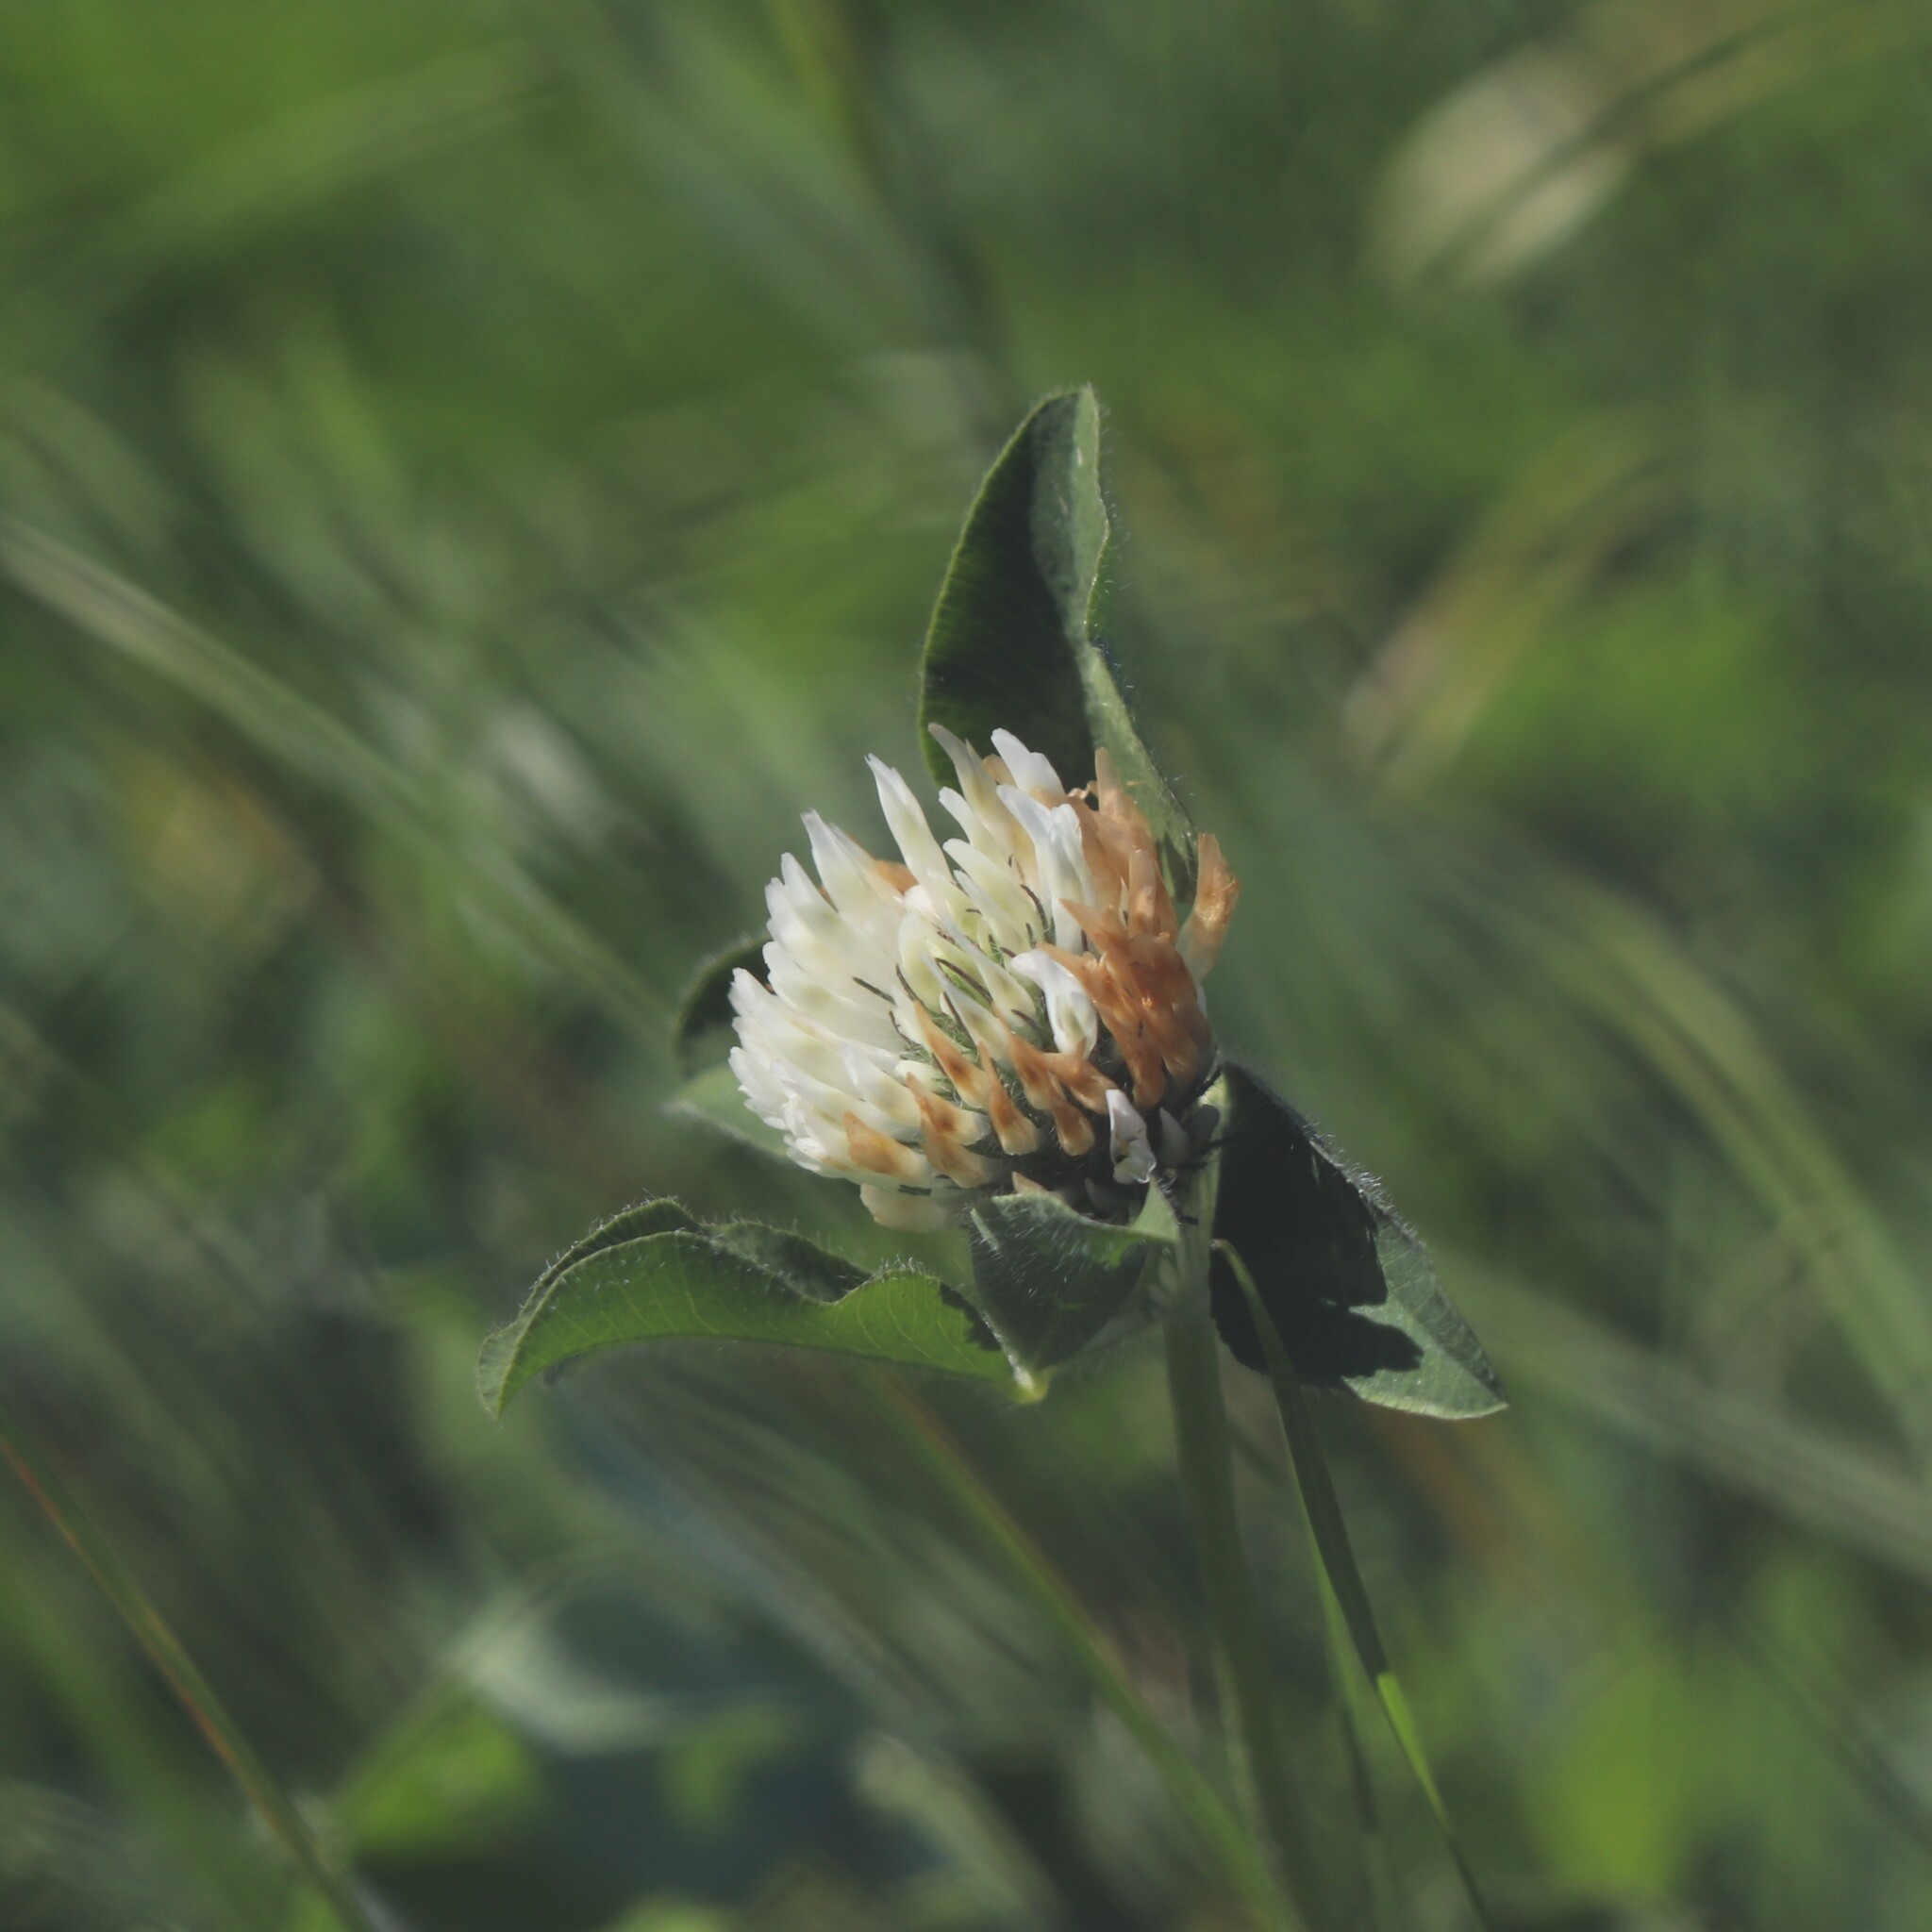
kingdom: Plantae
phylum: Tracheophyta
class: Magnoliopsida
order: Fabales
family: Fabaceae
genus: Trifolium
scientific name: Trifolium pratense
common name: Red clover
